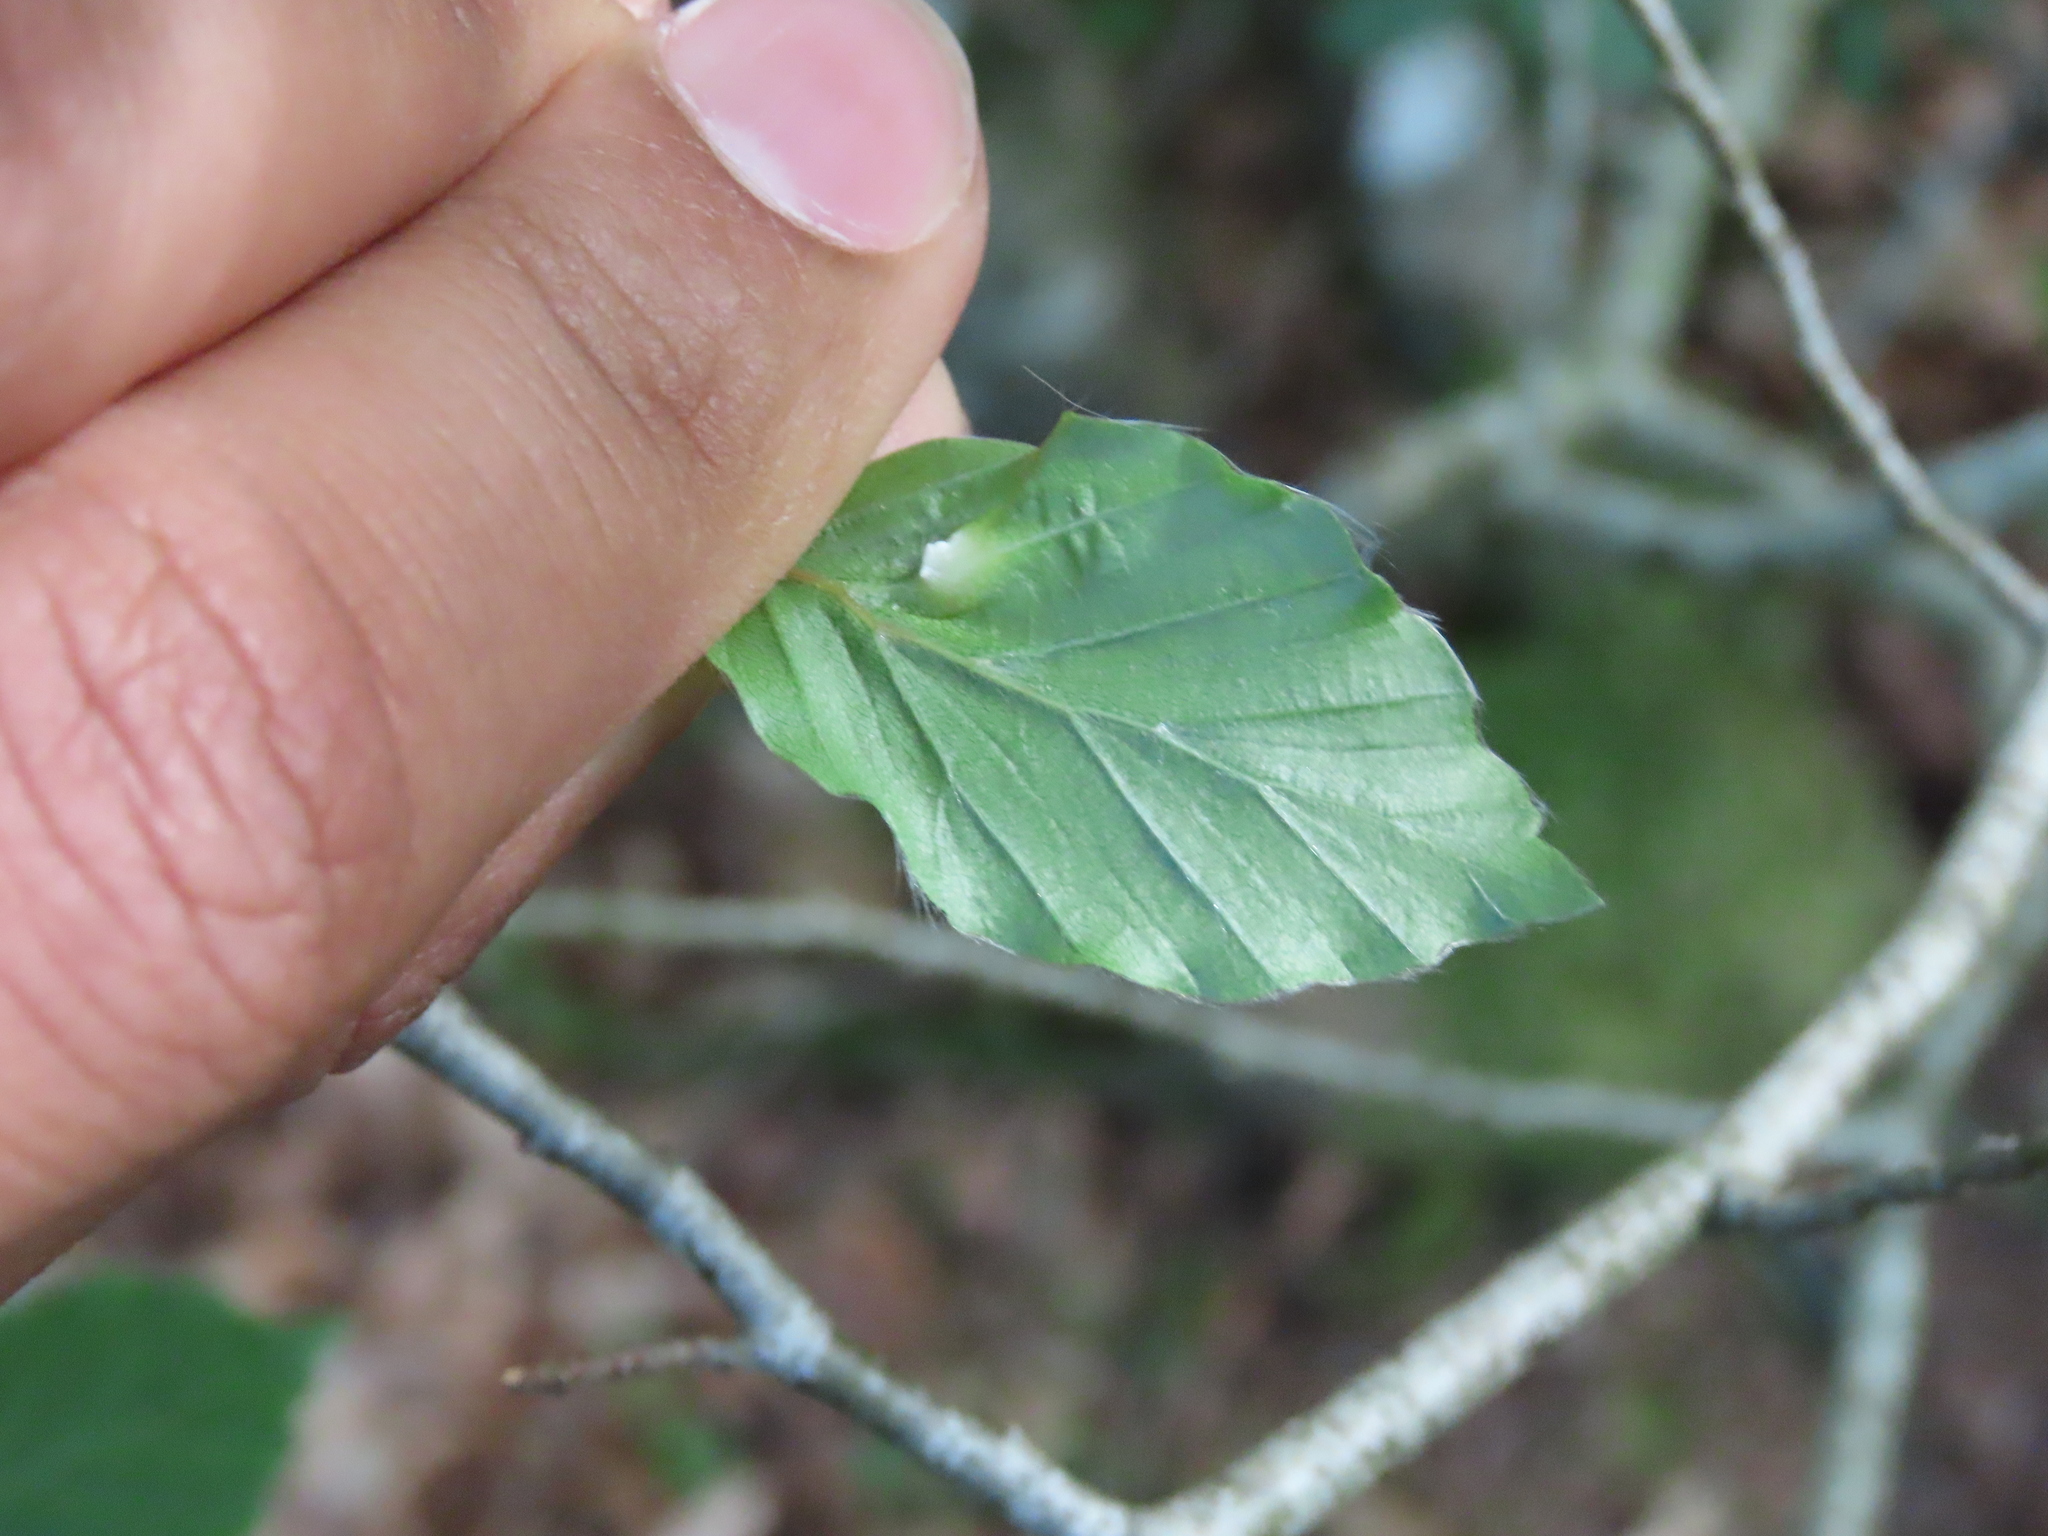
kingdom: Animalia
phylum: Arthropoda
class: Insecta
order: Diptera
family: Cecidomyiidae
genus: Mikiola
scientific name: Mikiola fagi
